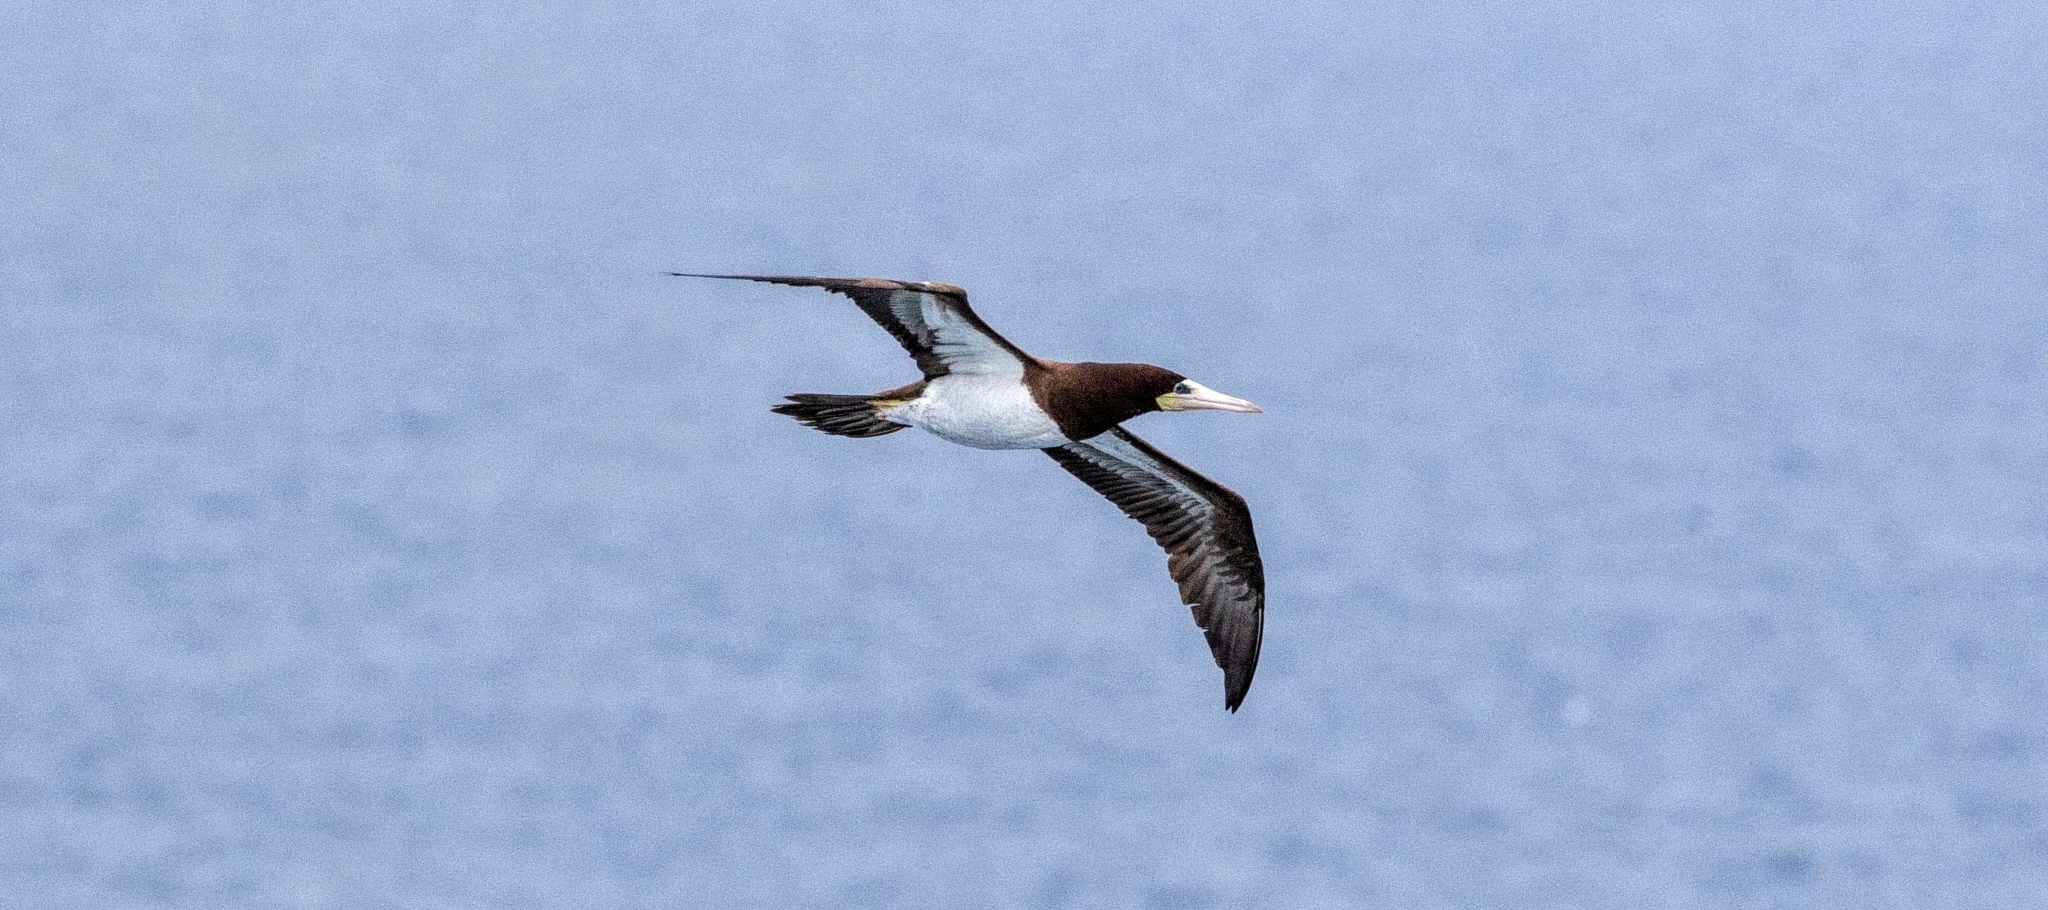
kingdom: Animalia
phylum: Chordata
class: Aves
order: Suliformes
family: Sulidae
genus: Sula
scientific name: Sula leucogaster
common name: Brown booby
